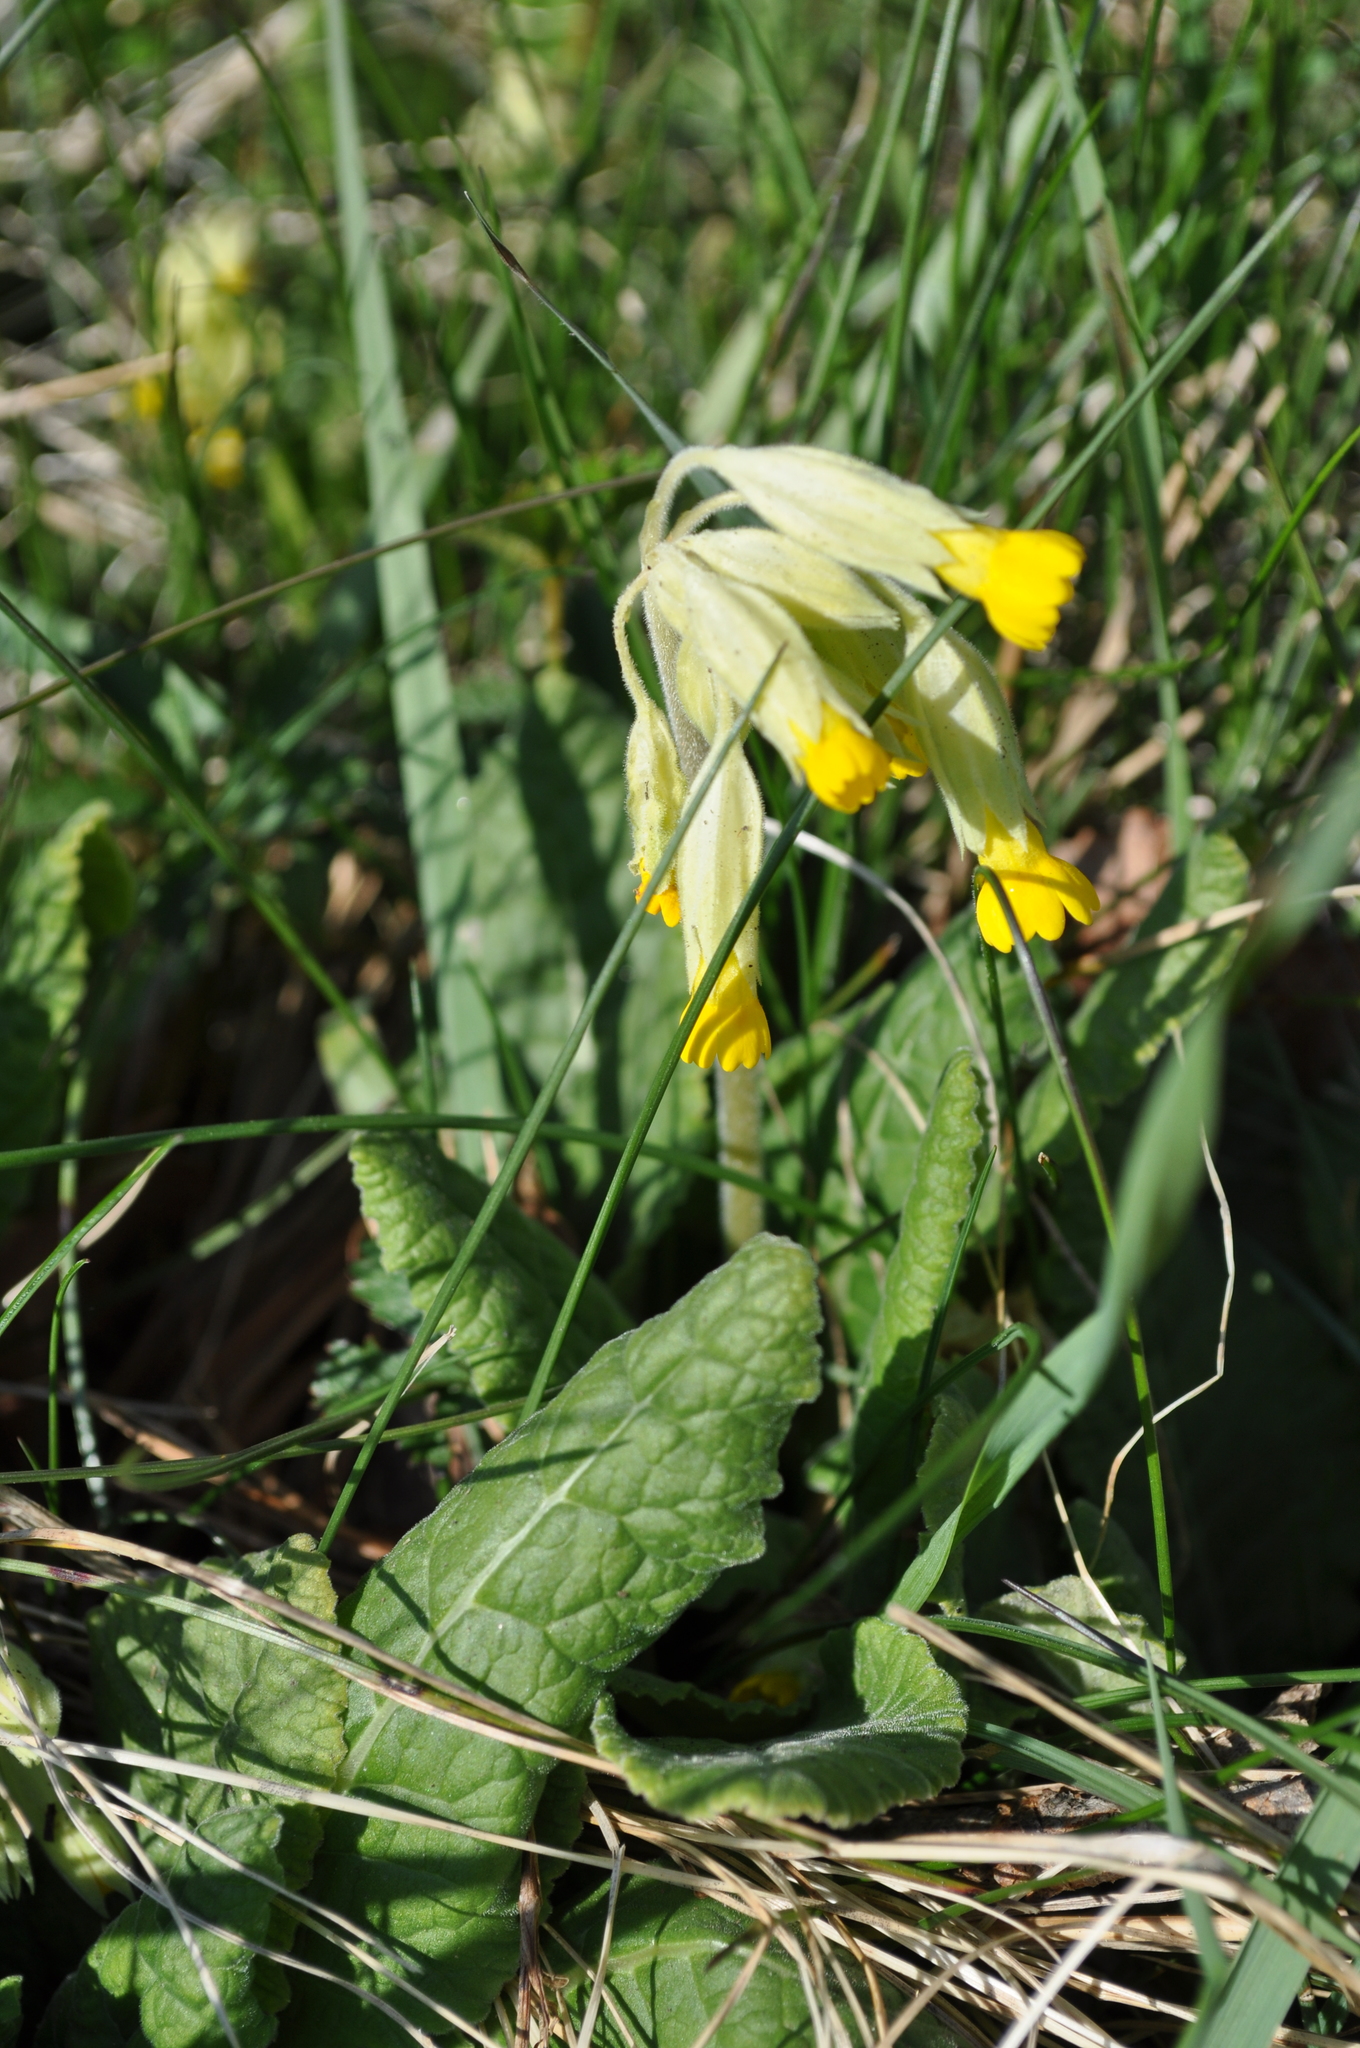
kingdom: Plantae
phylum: Tracheophyta
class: Magnoliopsida
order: Ericales
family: Primulaceae
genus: Primula
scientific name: Primula veris
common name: Cowslip
